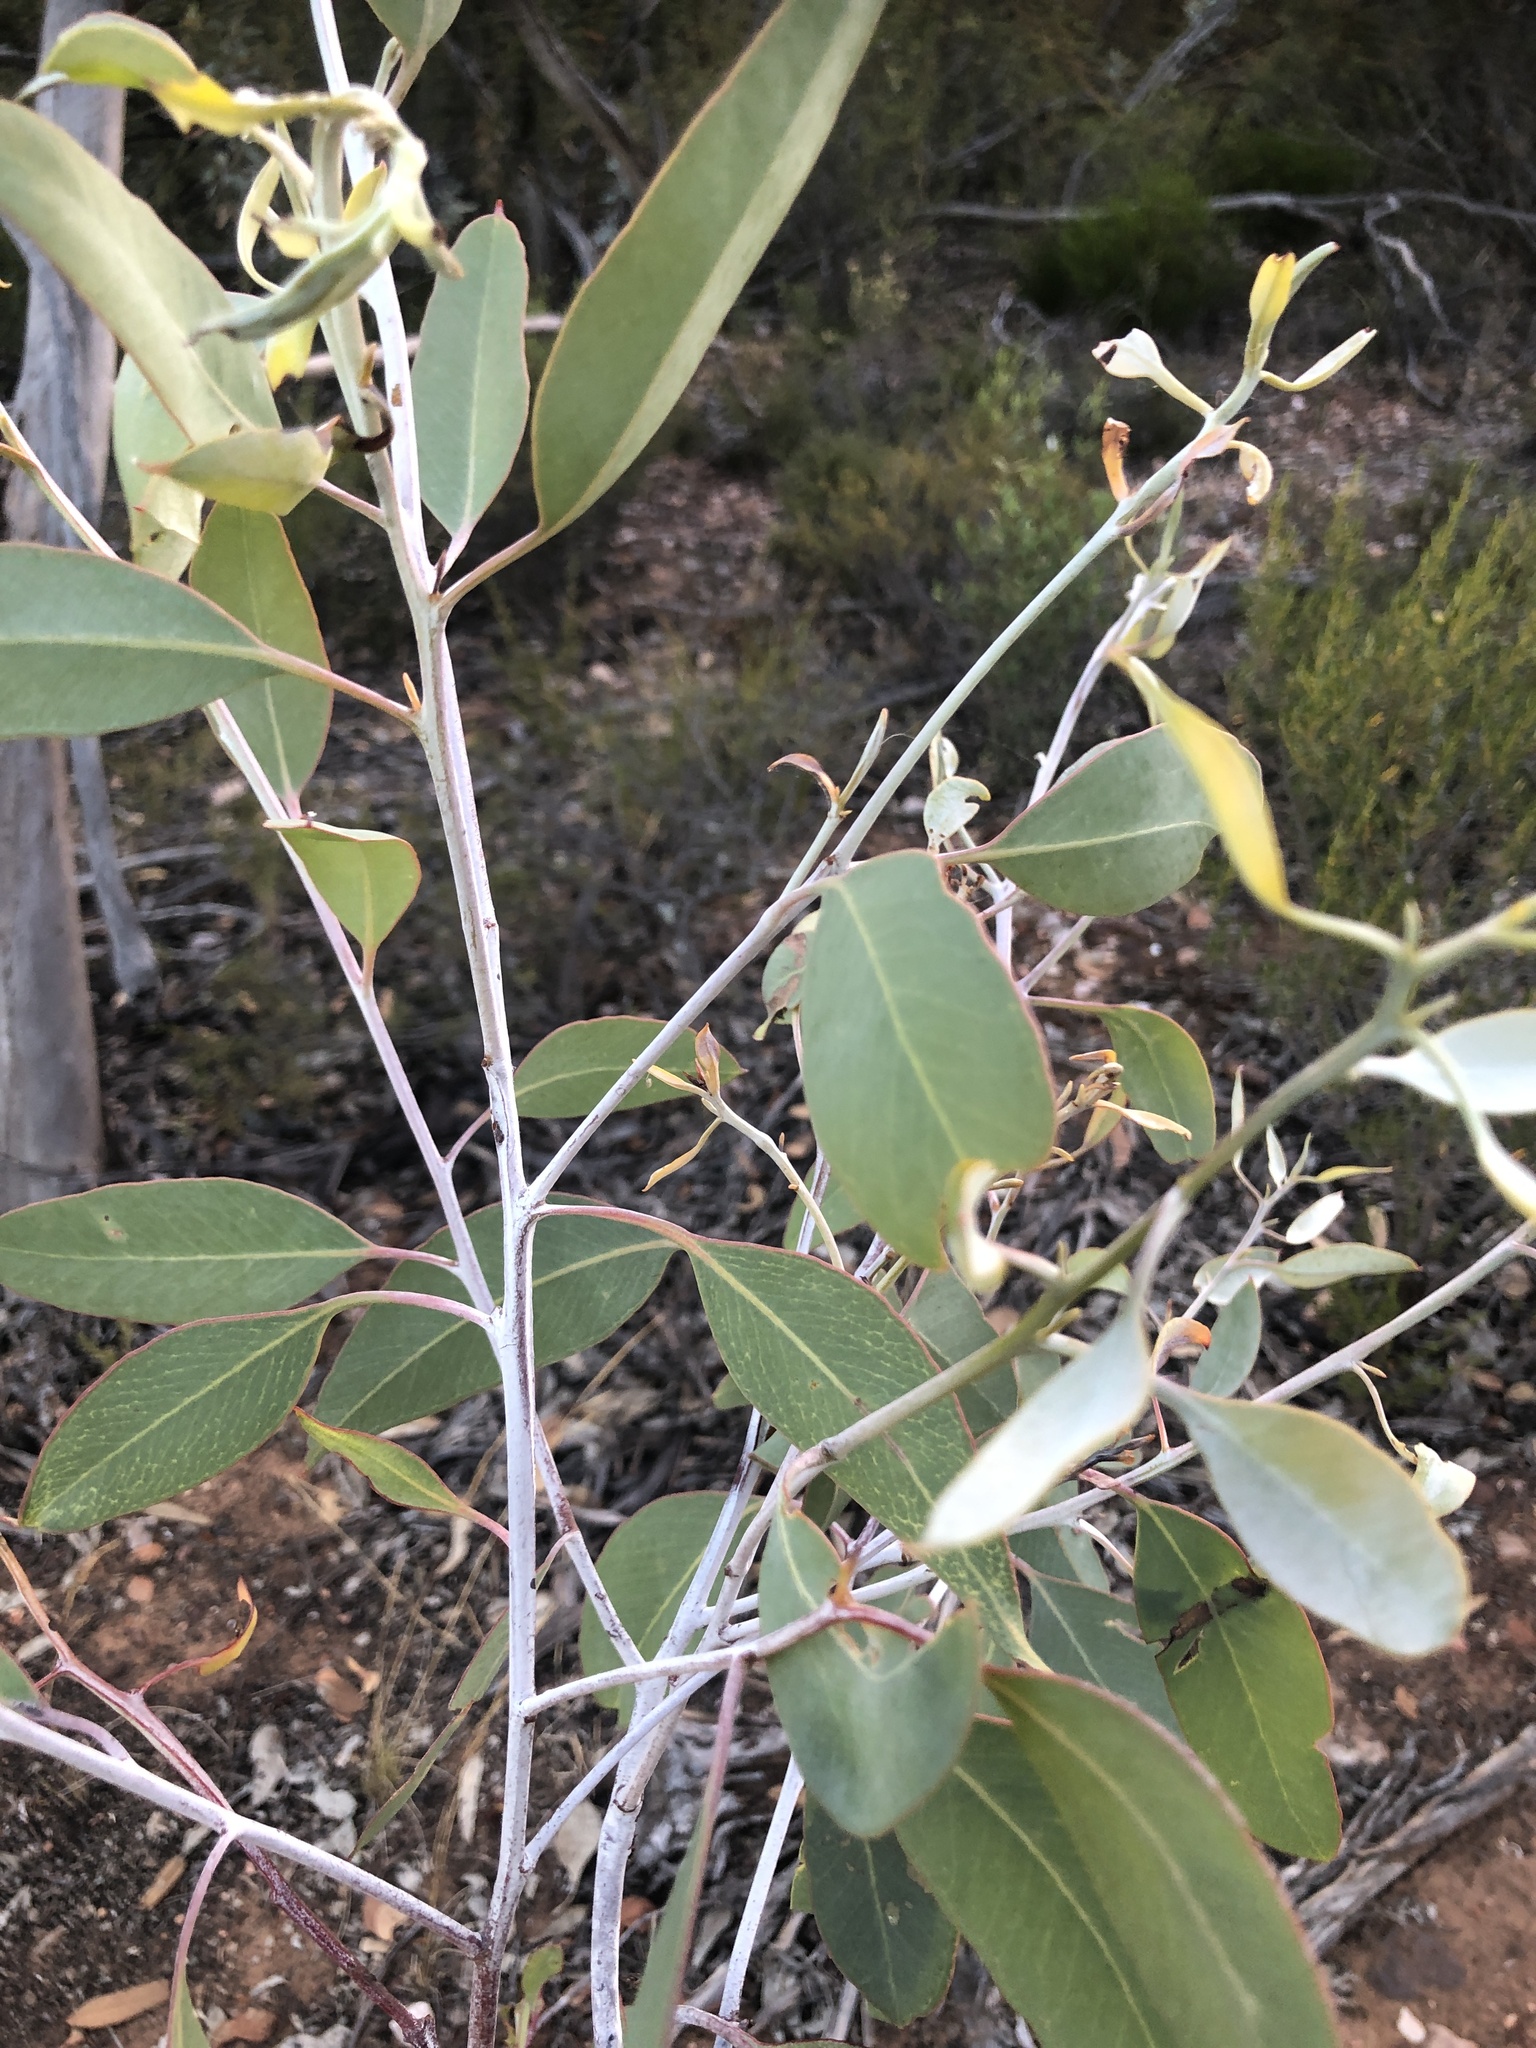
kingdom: Plantae
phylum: Tracheophyta
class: Magnoliopsida
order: Myrtales
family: Myrtaceae
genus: Eucalyptus
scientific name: Eucalyptus cretata
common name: Darke peak mallee
